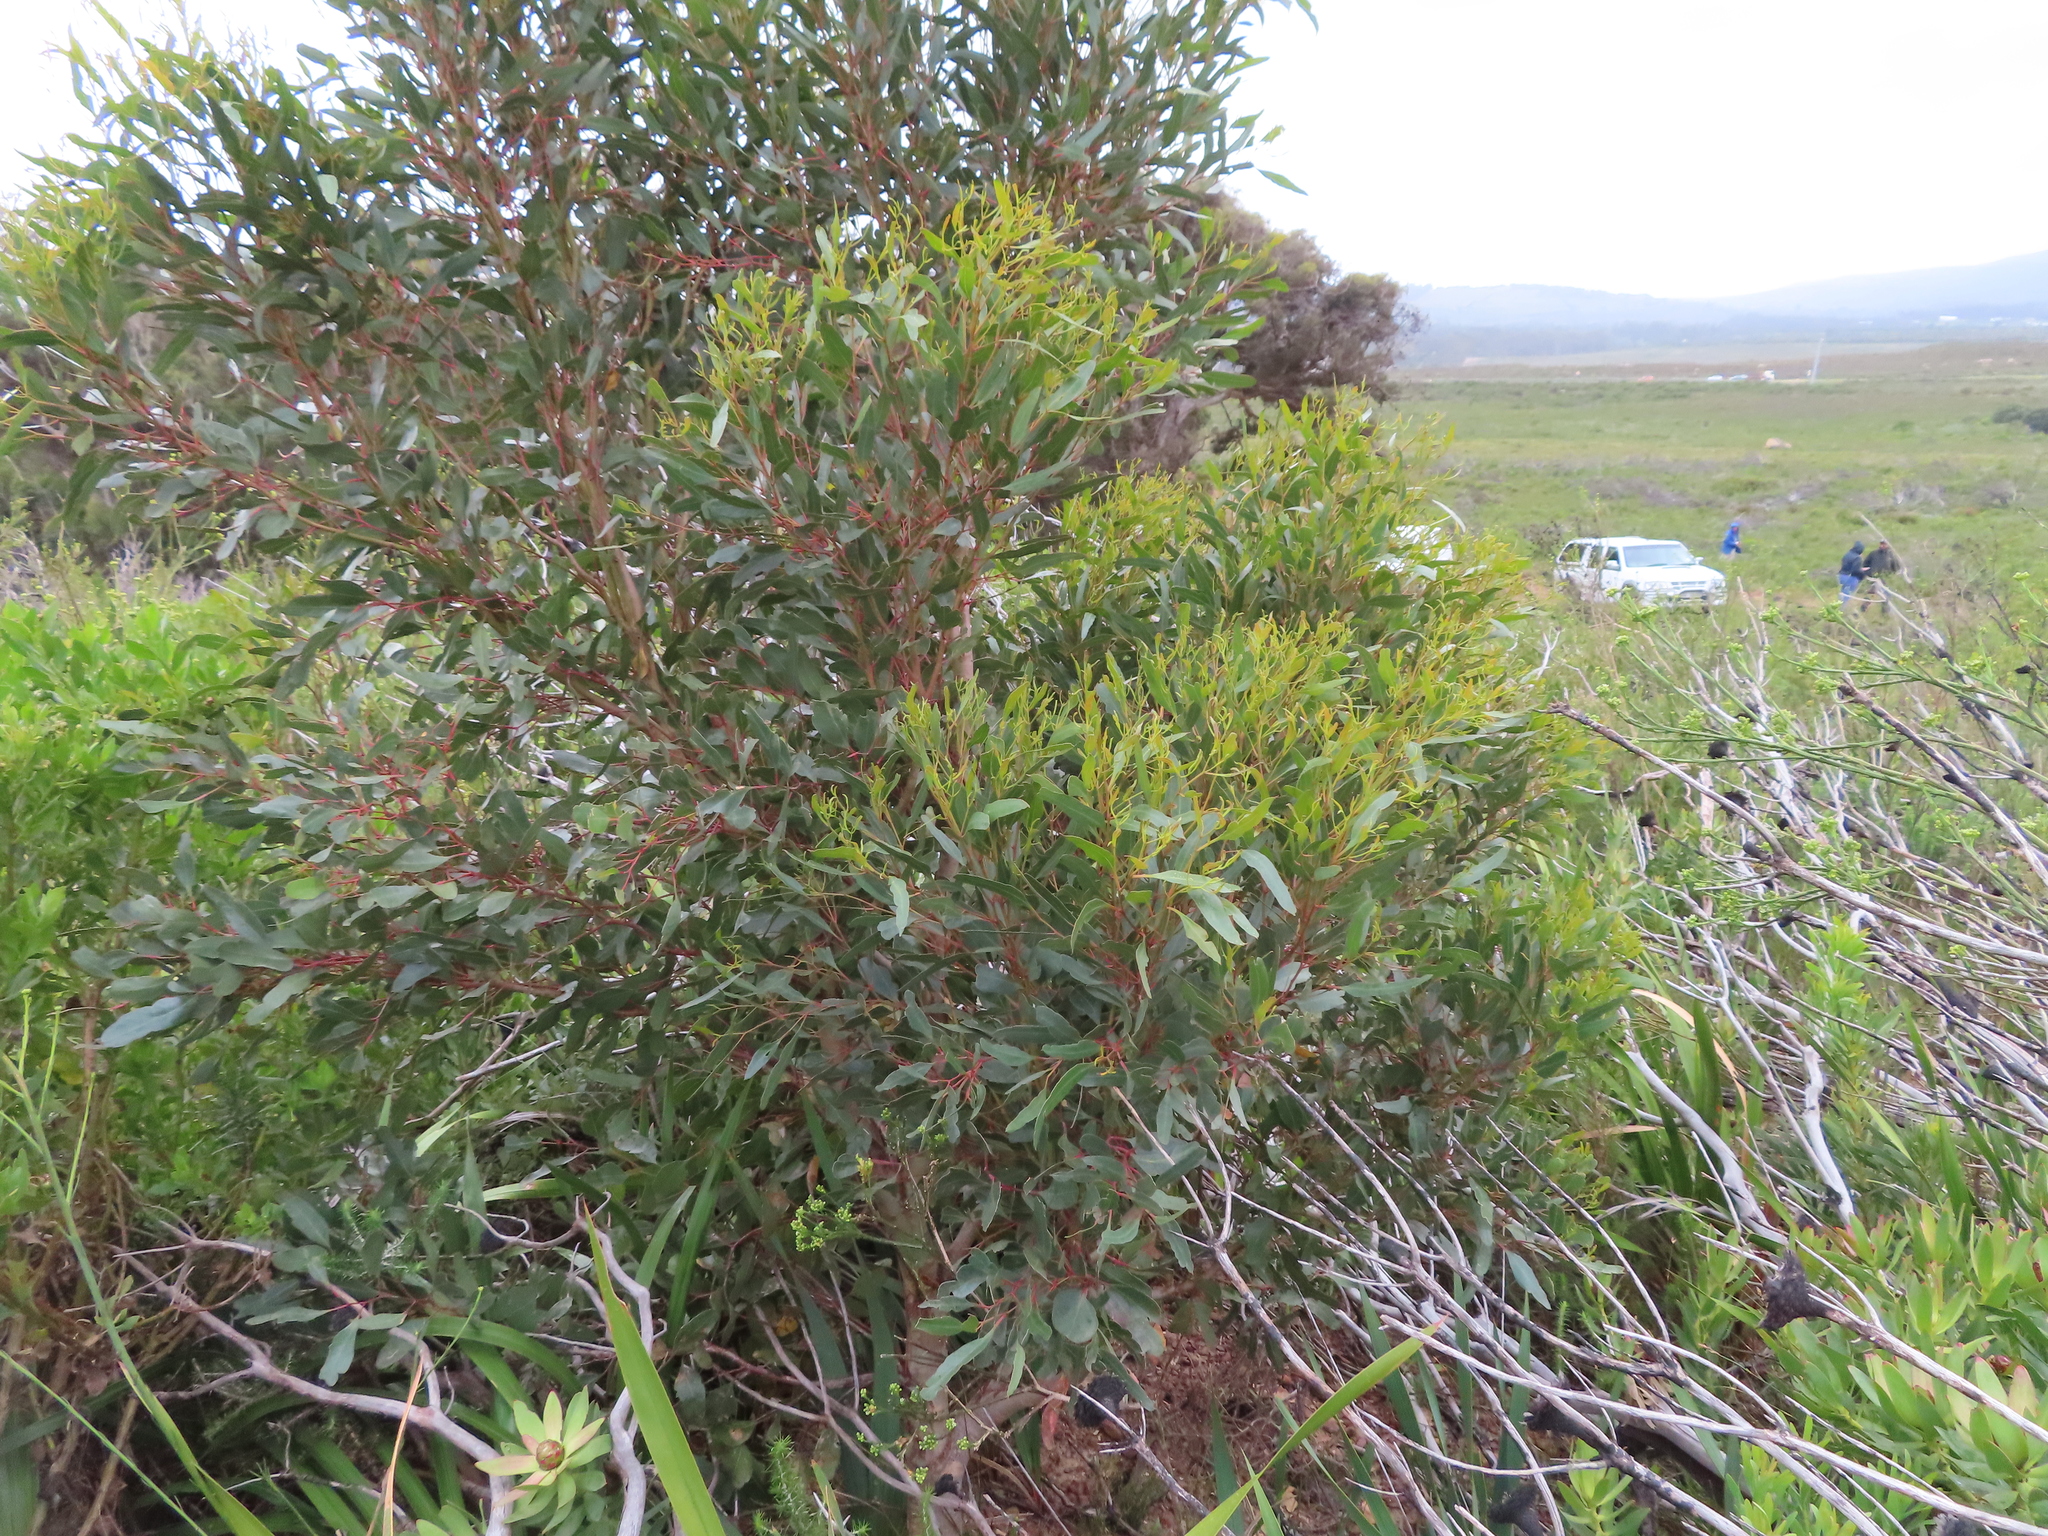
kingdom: Plantae
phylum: Tracheophyta
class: Magnoliopsida
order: Myrtales
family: Myrtaceae
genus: Eucalyptus
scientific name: Eucalyptus conferruminata
